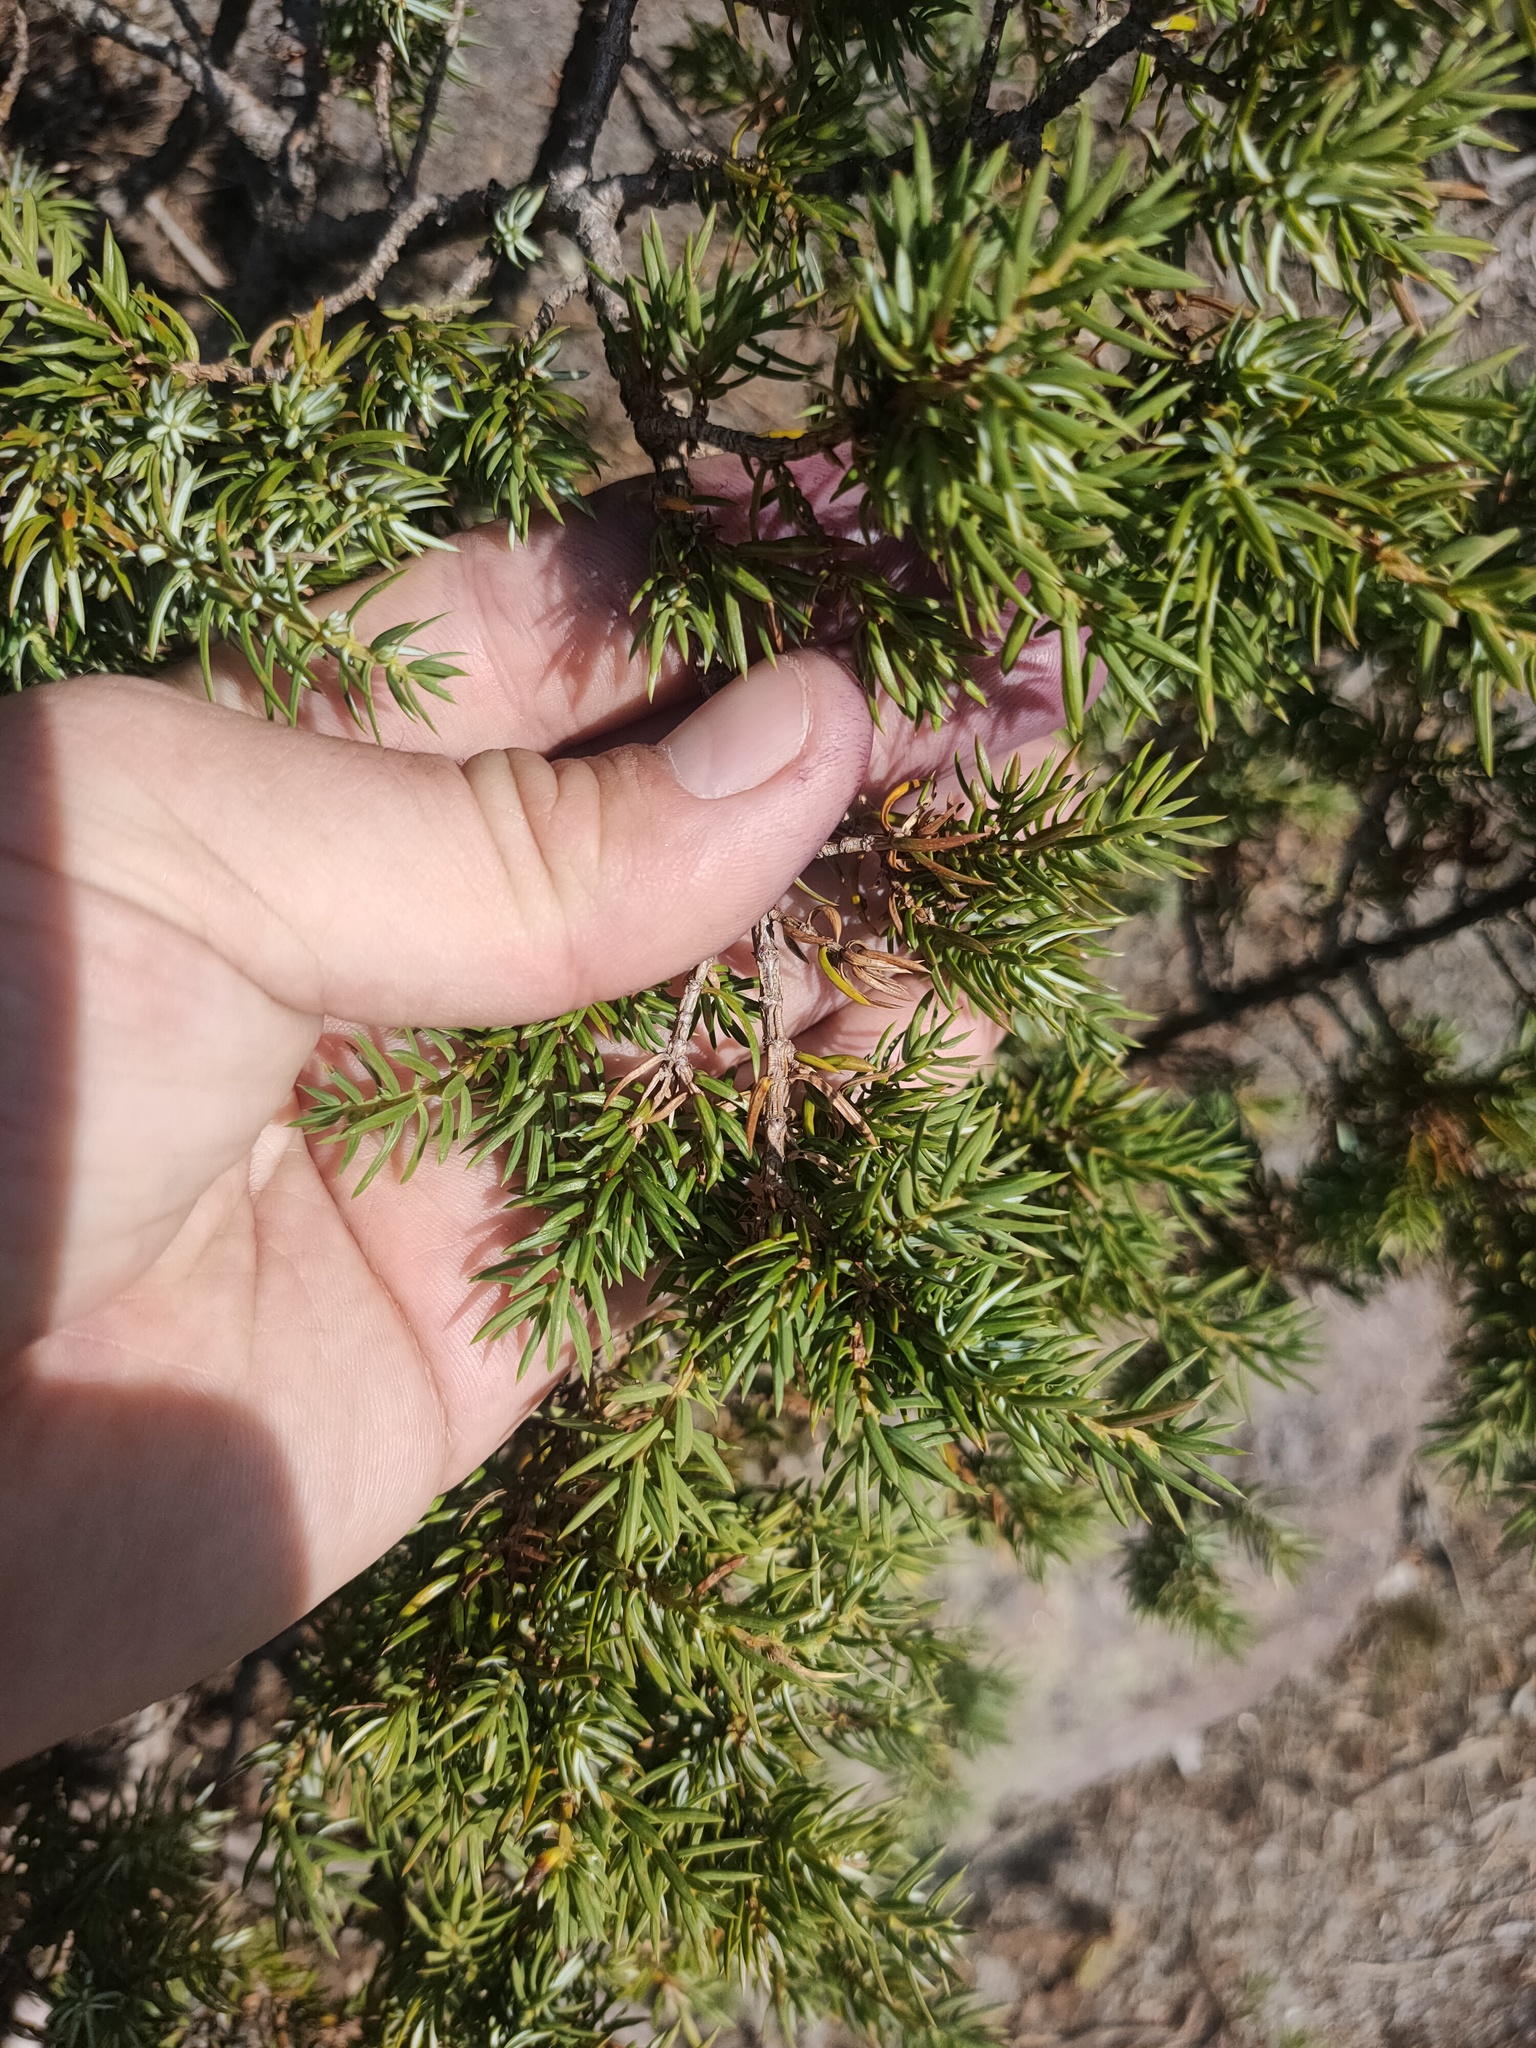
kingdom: Plantae
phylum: Tracheophyta
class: Pinopsida
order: Pinales
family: Cupressaceae
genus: Juniperus
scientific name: Juniperus communis
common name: Common juniper
